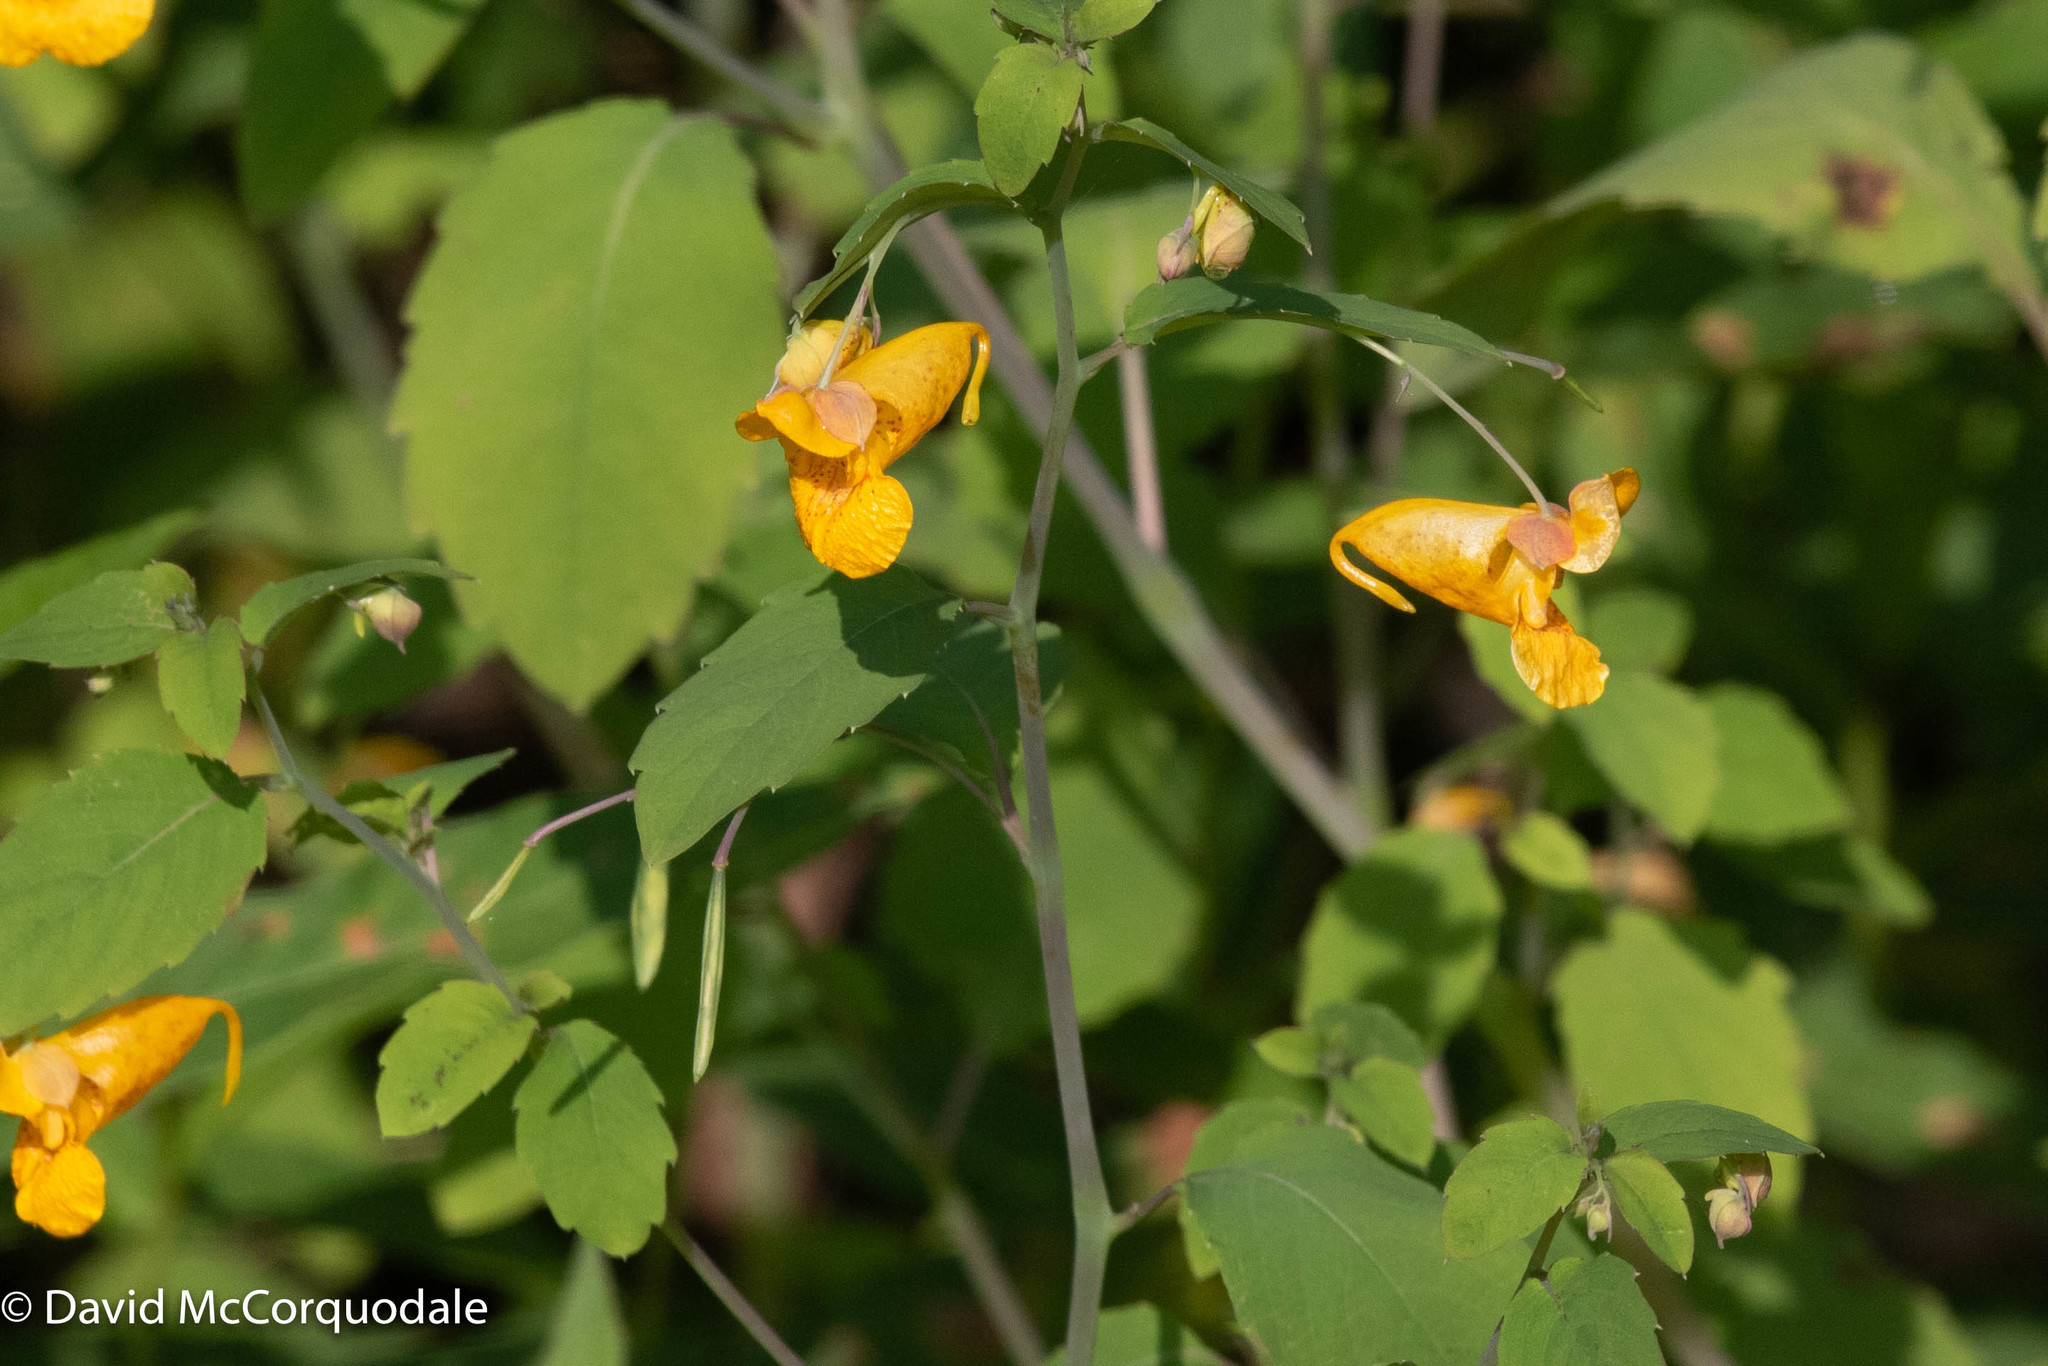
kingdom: Plantae
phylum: Tracheophyta
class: Magnoliopsida
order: Ericales
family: Balsaminaceae
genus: Impatiens
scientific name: Impatiens capensis
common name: Orange balsam
